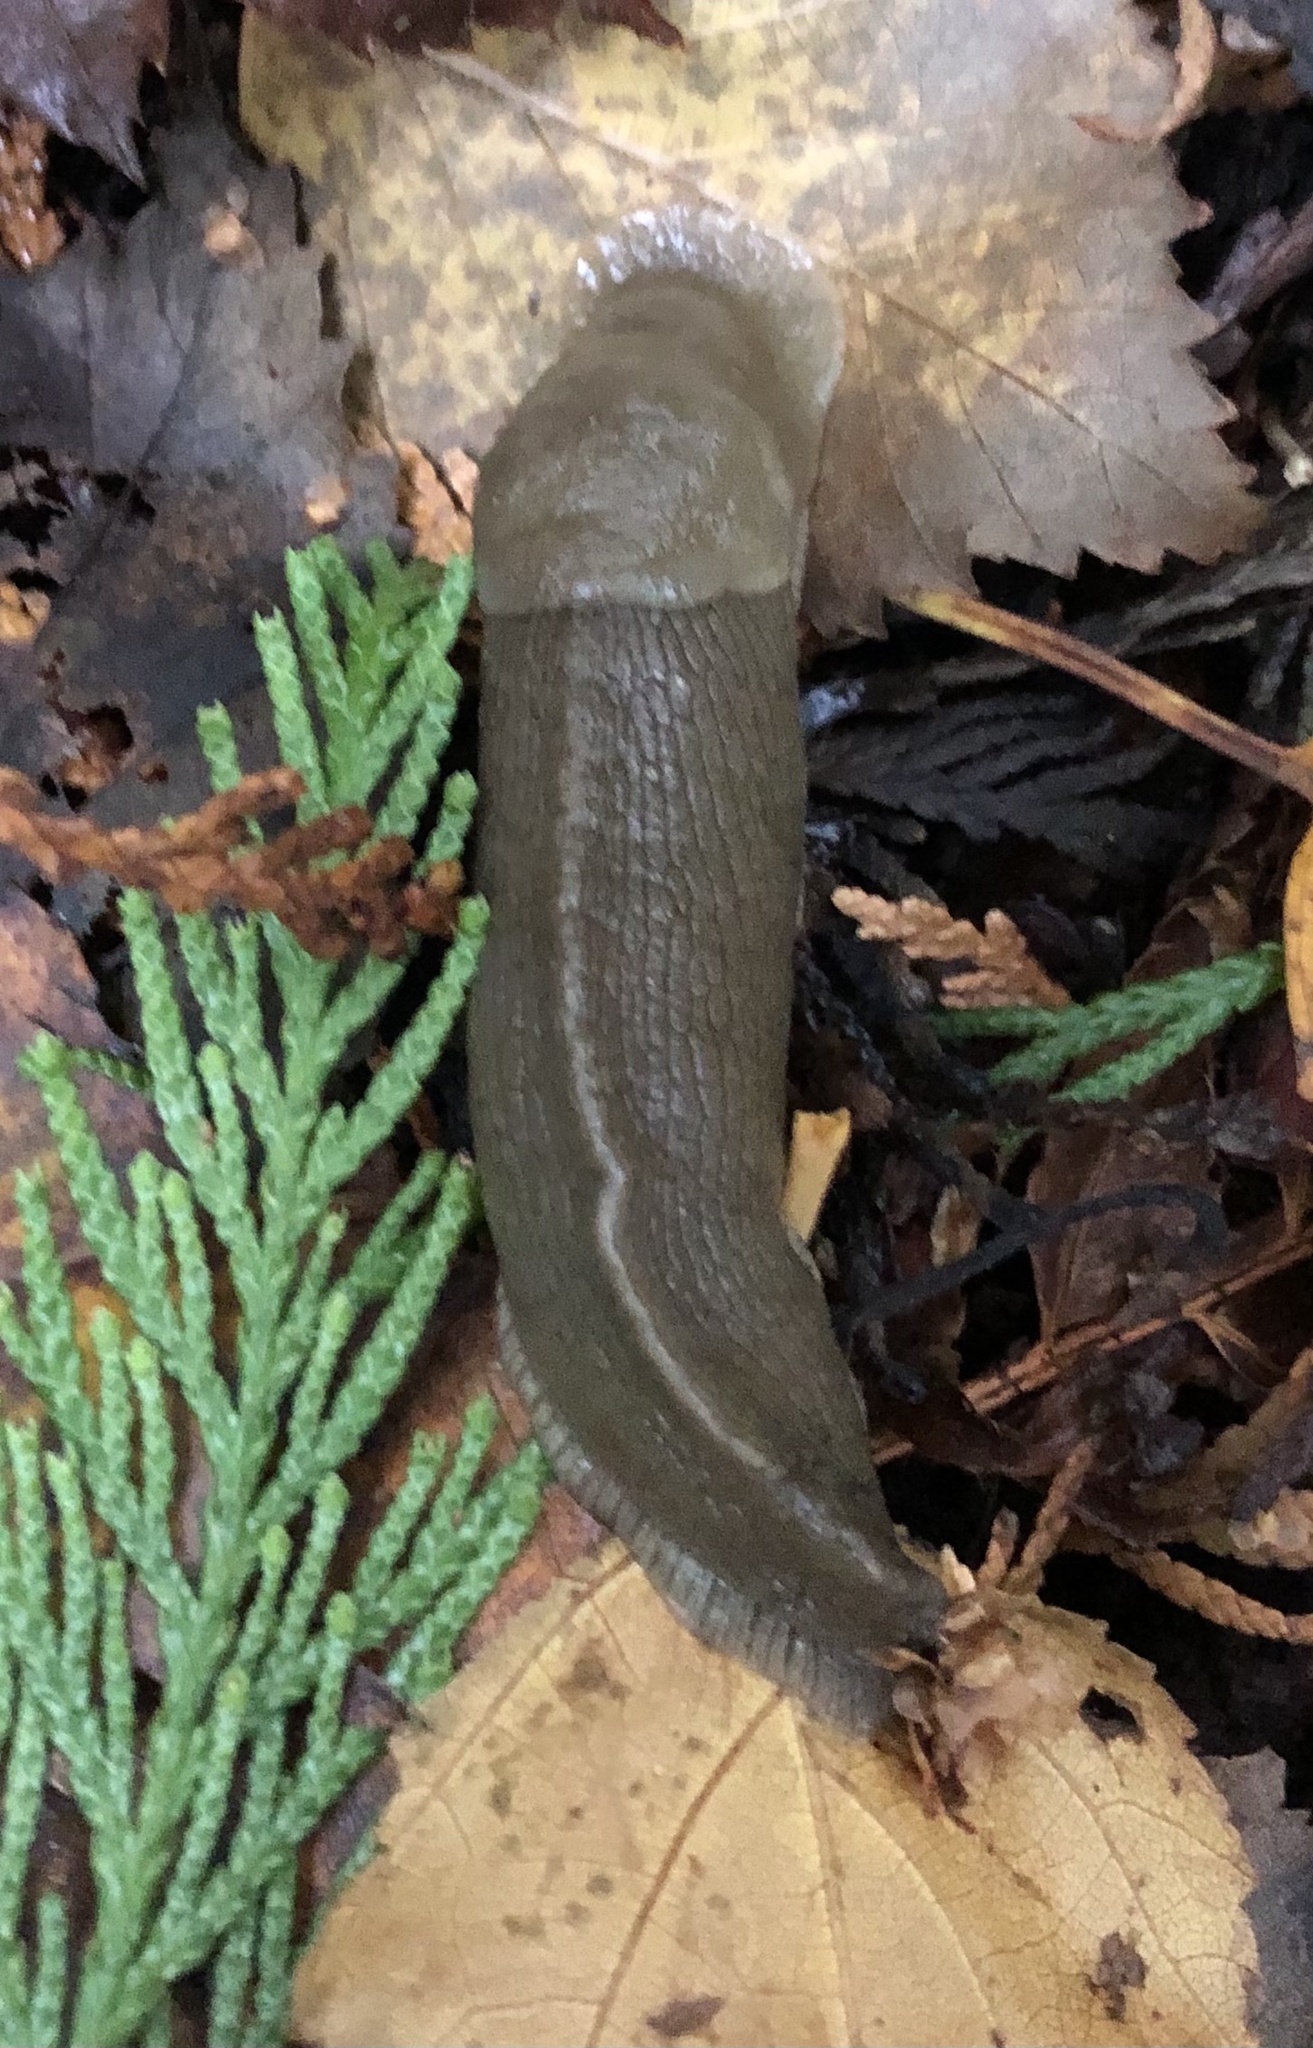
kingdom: Animalia
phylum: Mollusca
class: Gastropoda
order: Stylommatophora
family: Ariolimacidae
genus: Ariolimax
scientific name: Ariolimax columbianus
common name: Pacific banana slug
